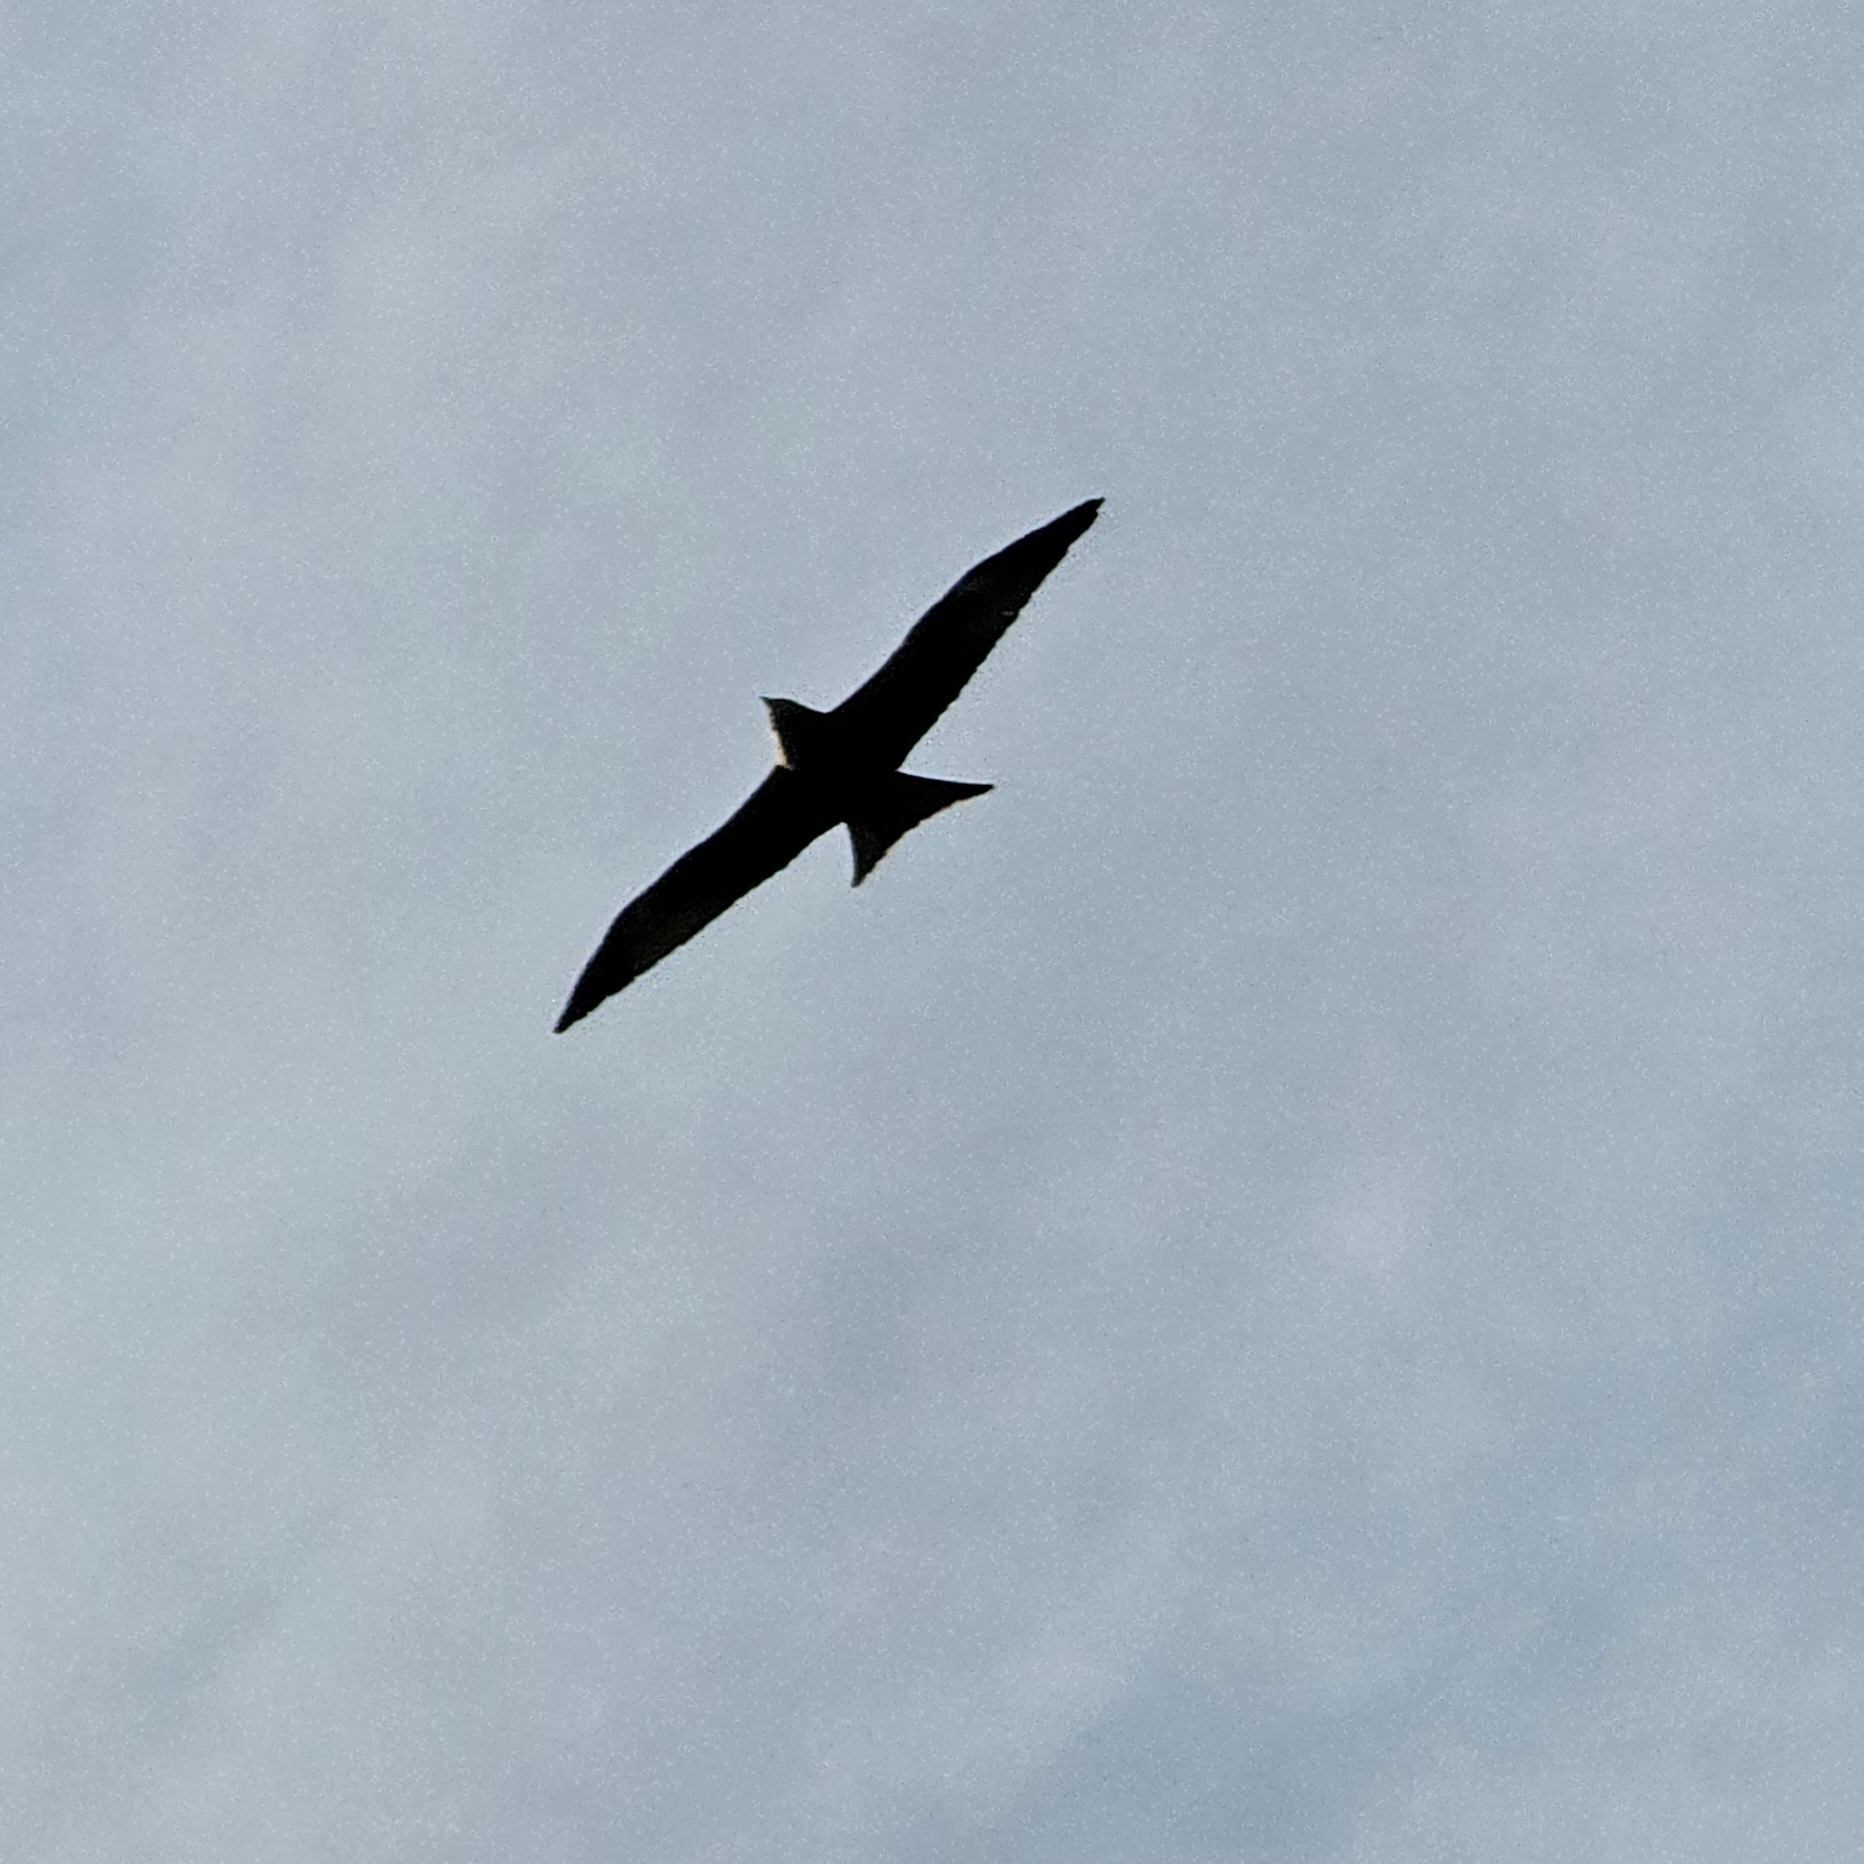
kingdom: Animalia
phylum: Chordata
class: Aves
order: Accipitriformes
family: Accipitridae
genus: Milvus
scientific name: Milvus milvus
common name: Red kite
